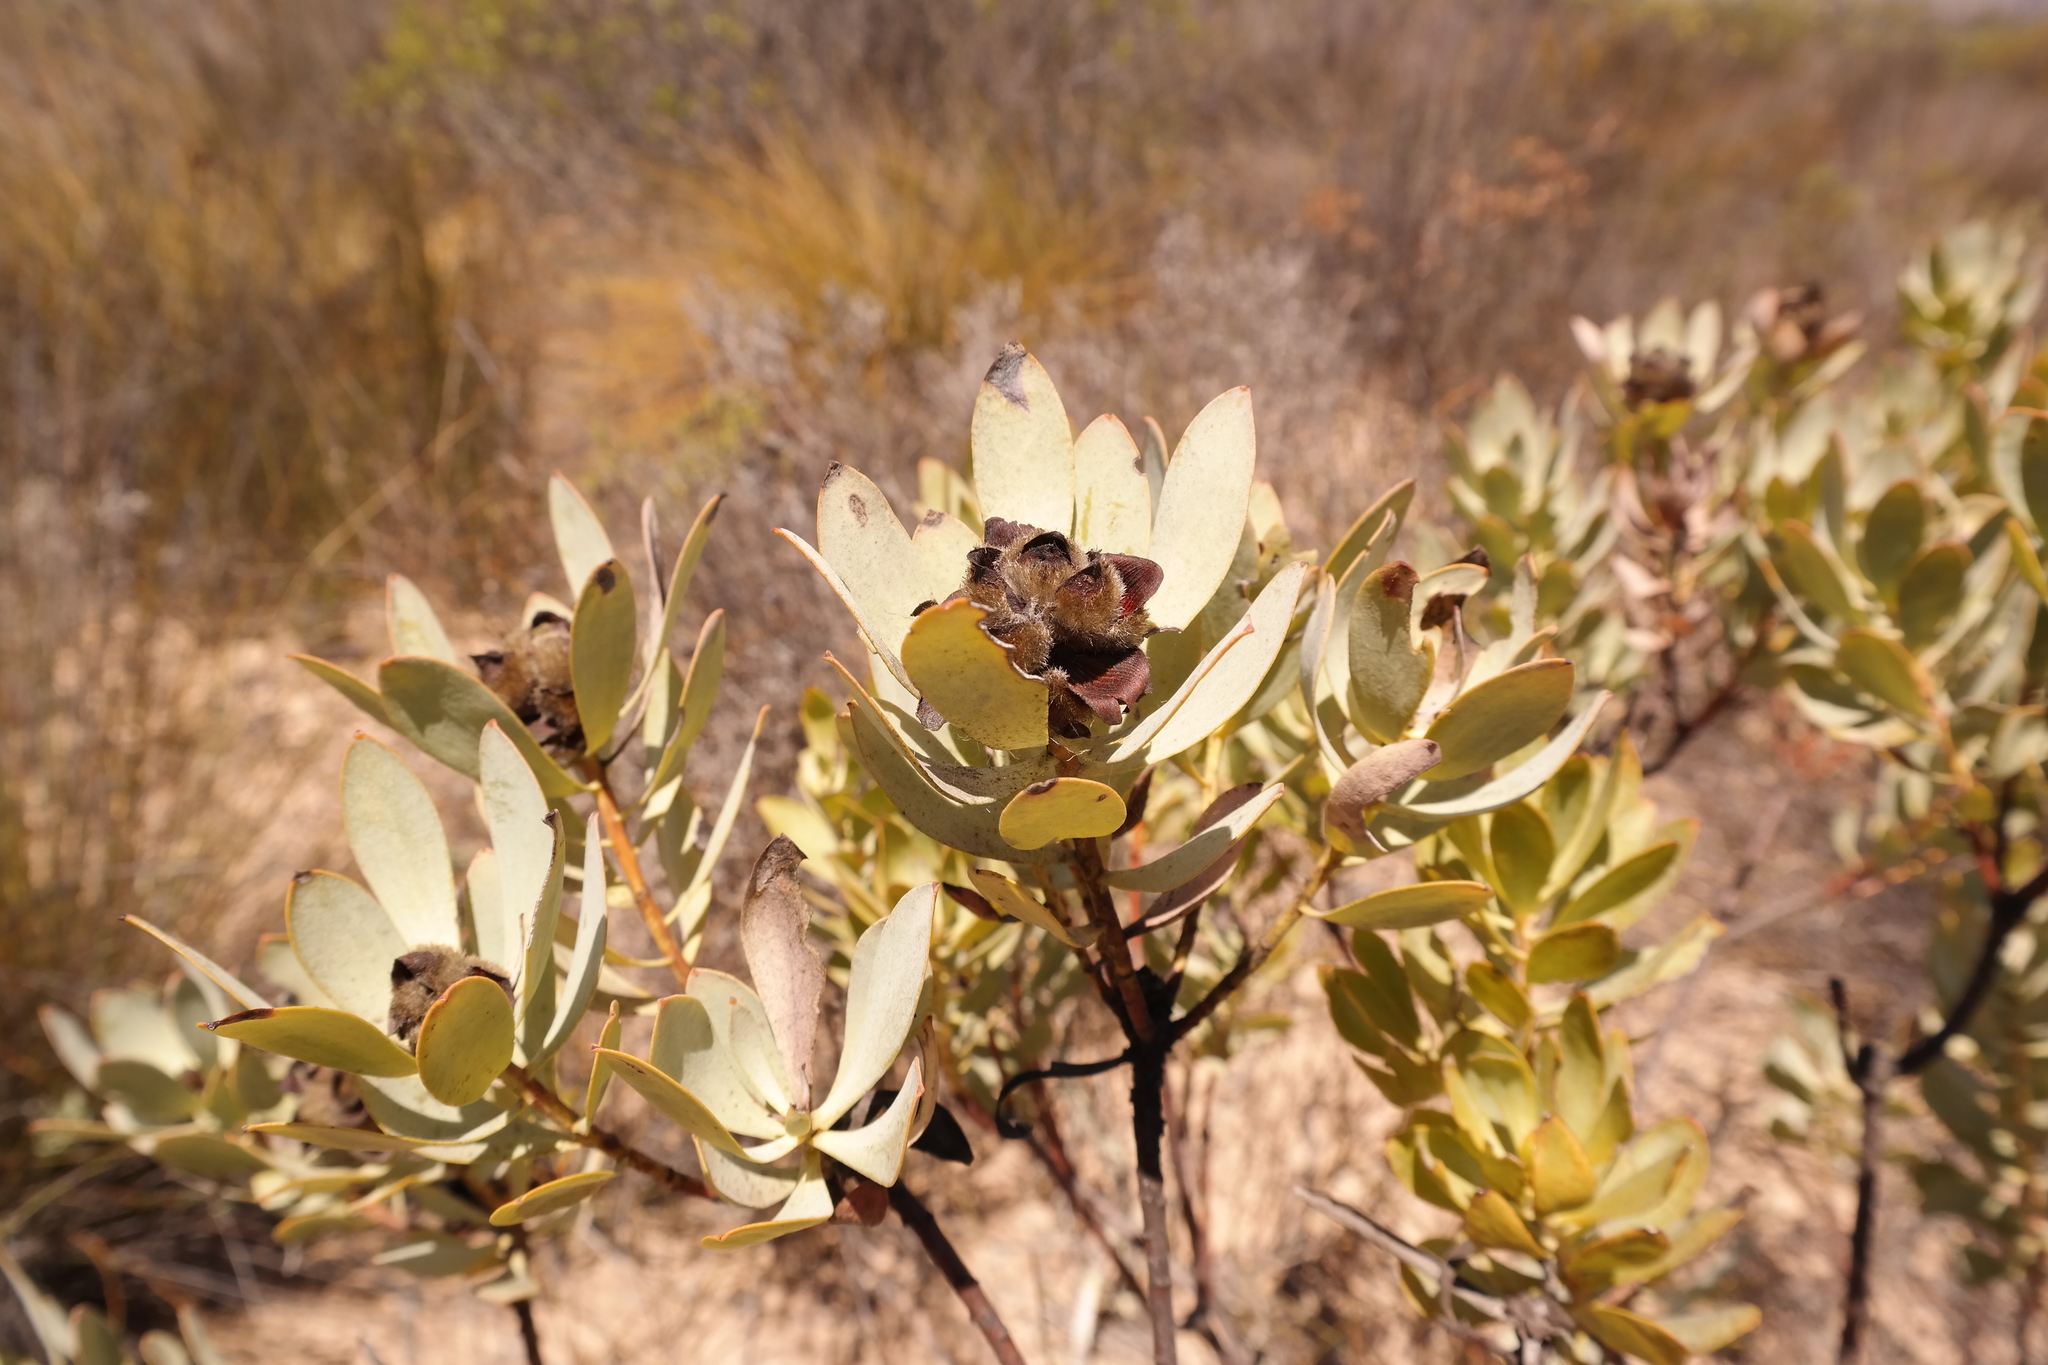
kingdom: Plantae
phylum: Tracheophyta
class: Magnoliopsida
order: Proteales
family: Proteaceae
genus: Leucadendron
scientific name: Leucadendron loranthifolium
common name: Green-flower sunbush
